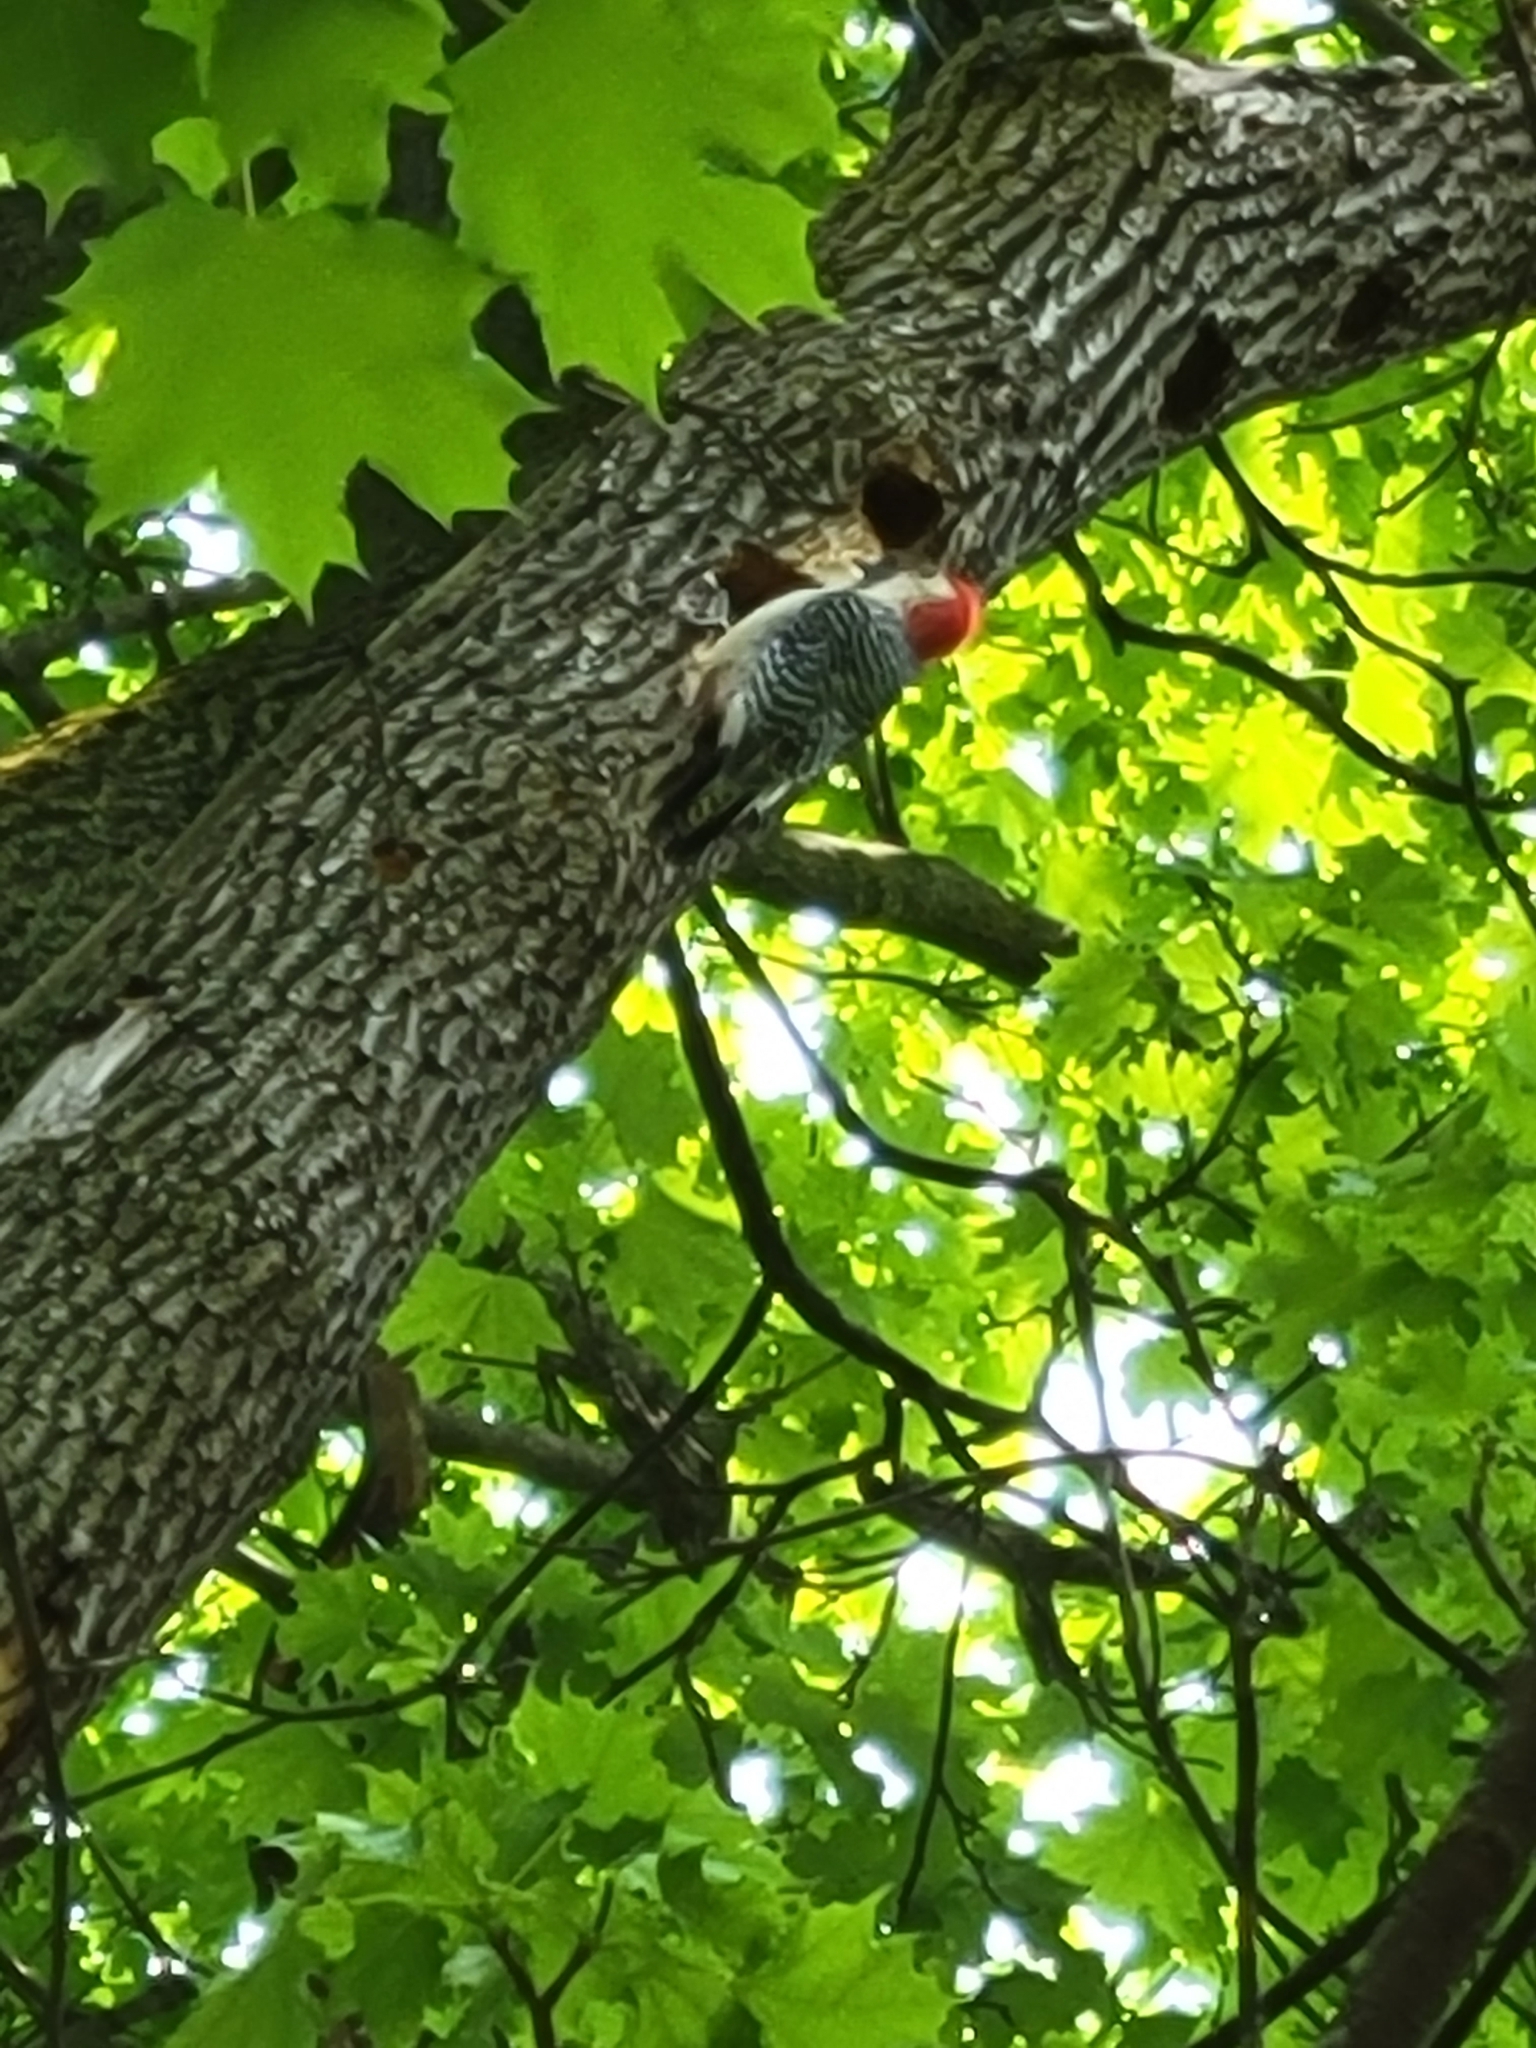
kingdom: Animalia
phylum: Chordata
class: Aves
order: Piciformes
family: Picidae
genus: Melanerpes
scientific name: Melanerpes carolinus
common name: Red-bellied woodpecker
